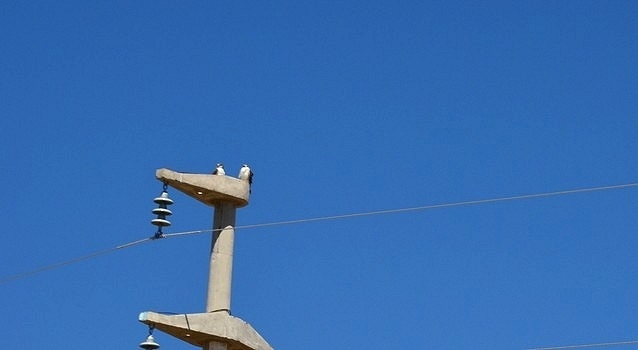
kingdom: Animalia
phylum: Chordata
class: Aves
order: Accipitriformes
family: Accipitridae
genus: Buteo
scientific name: Buteo polyosoma
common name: Variable hawk
